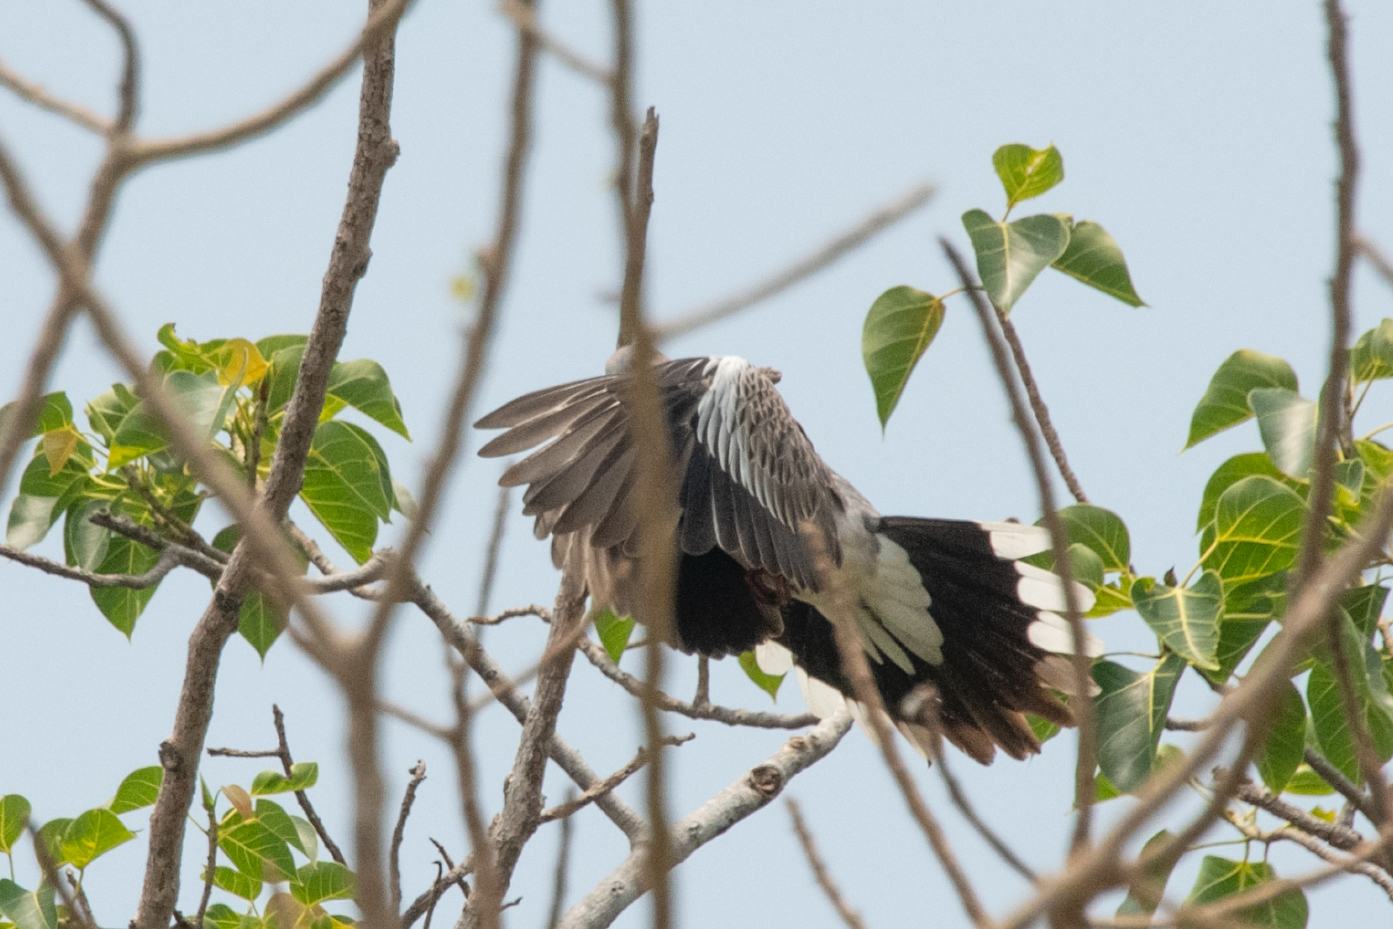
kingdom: Animalia
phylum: Chordata
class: Aves
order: Columbiformes
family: Columbidae
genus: Spilopelia
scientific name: Spilopelia chinensis
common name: Spotted dove
